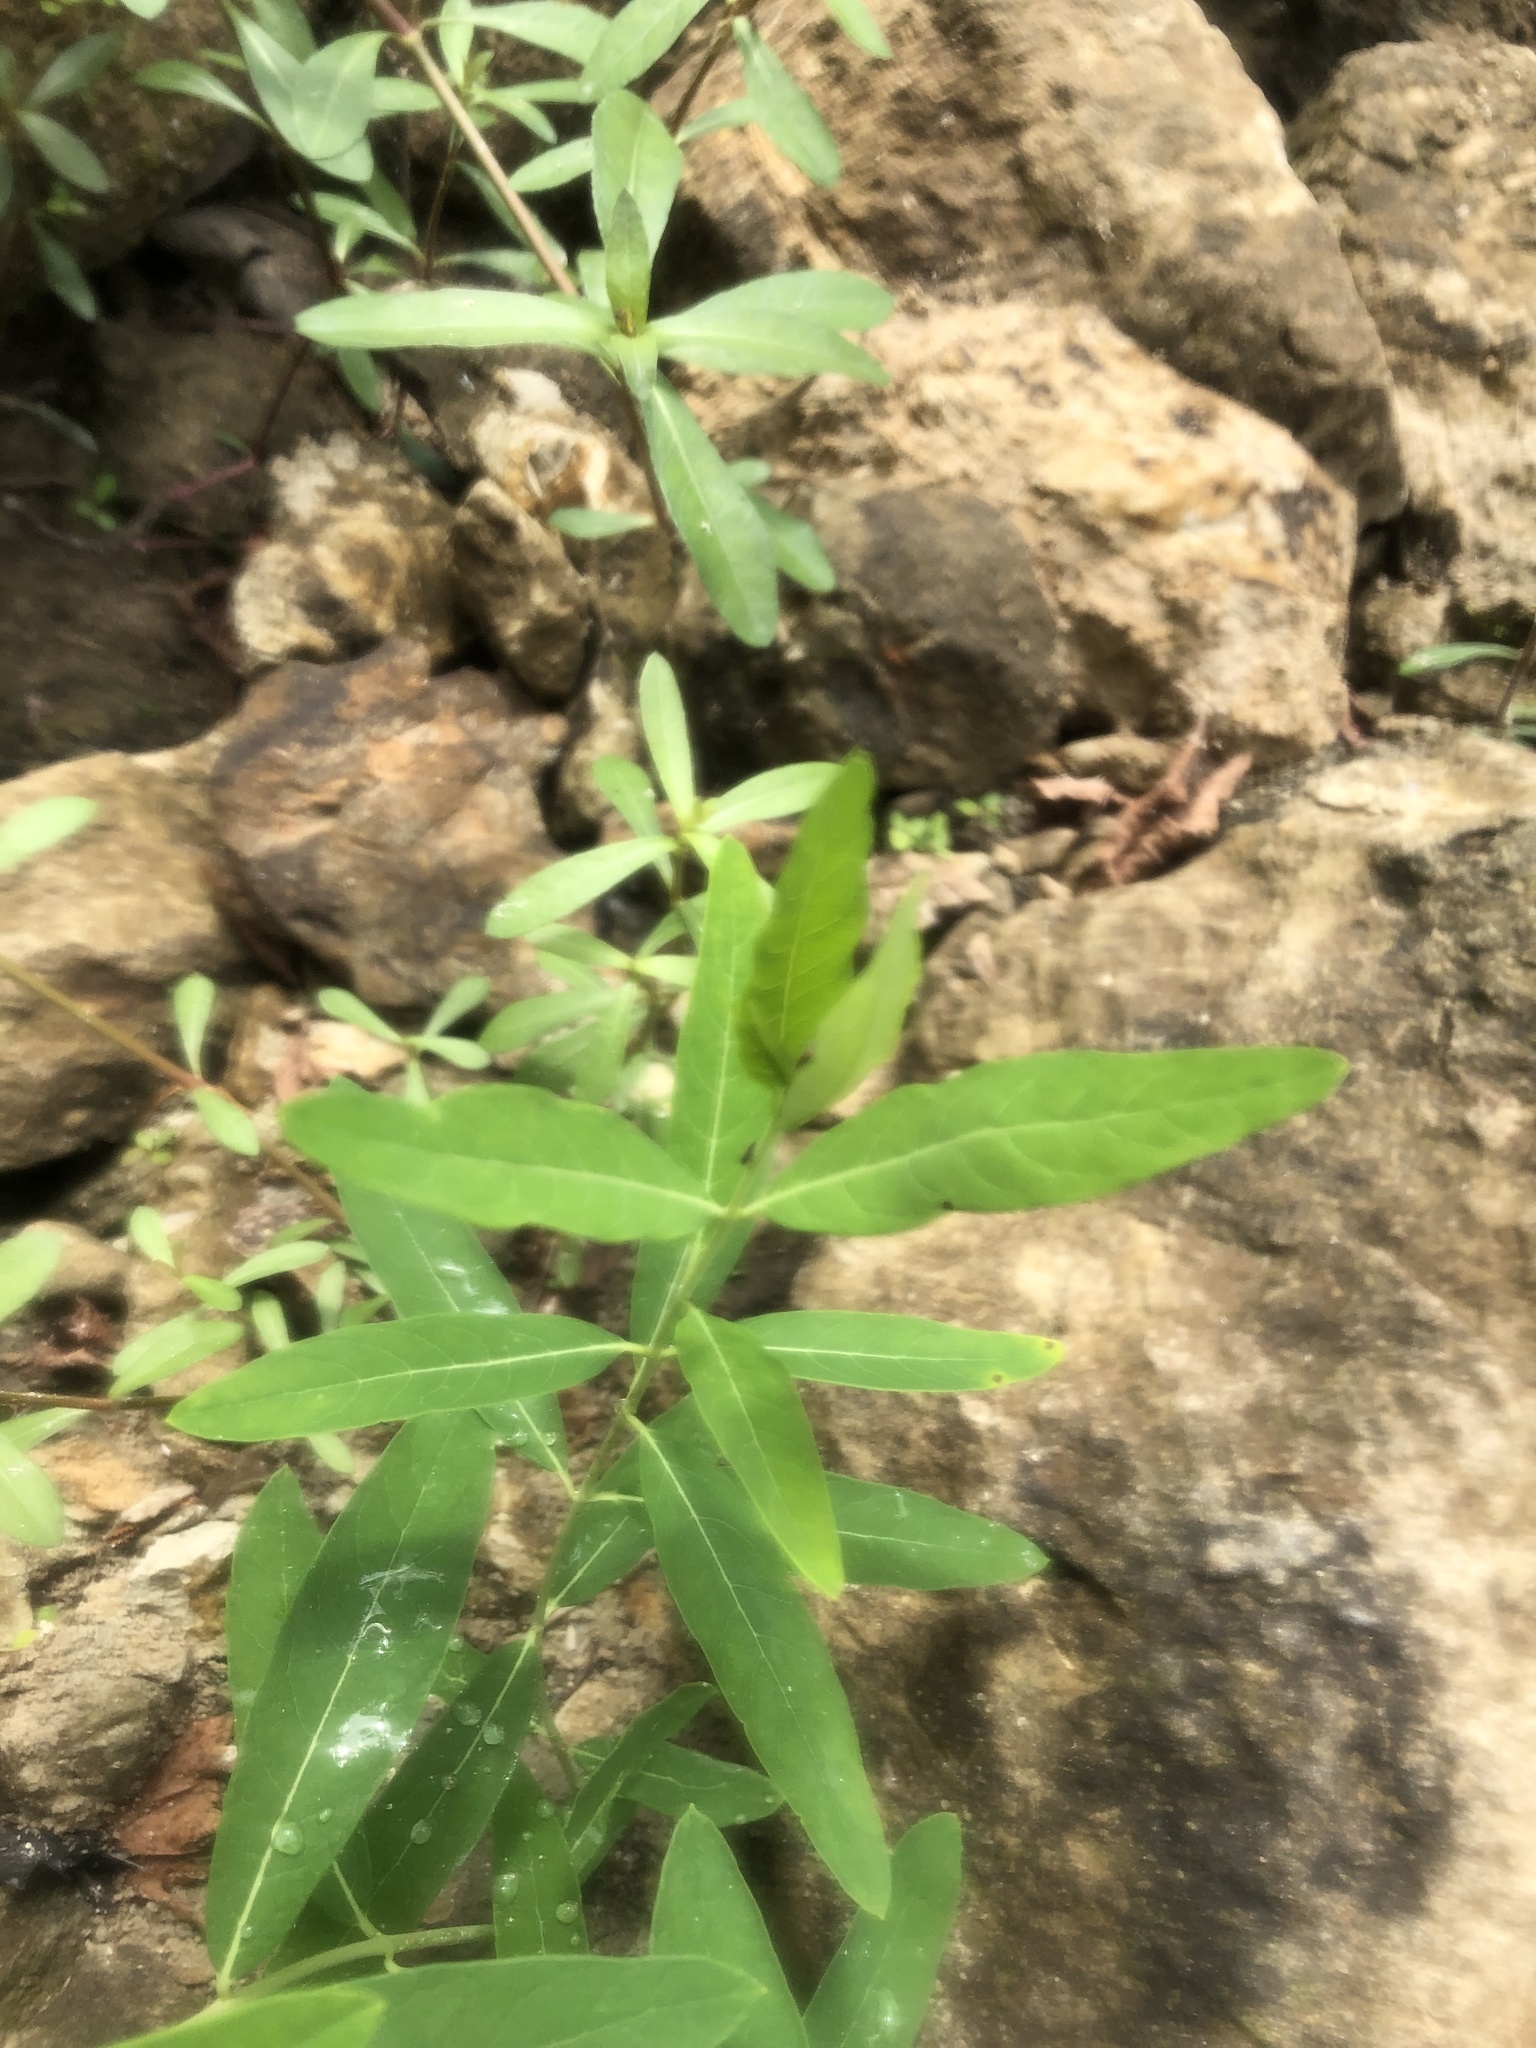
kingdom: Plantae
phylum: Tracheophyta
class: Magnoliopsida
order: Gentianales
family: Apocynaceae
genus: Apocynum
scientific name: Apocynum cannabinum
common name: Hemp dogbane
